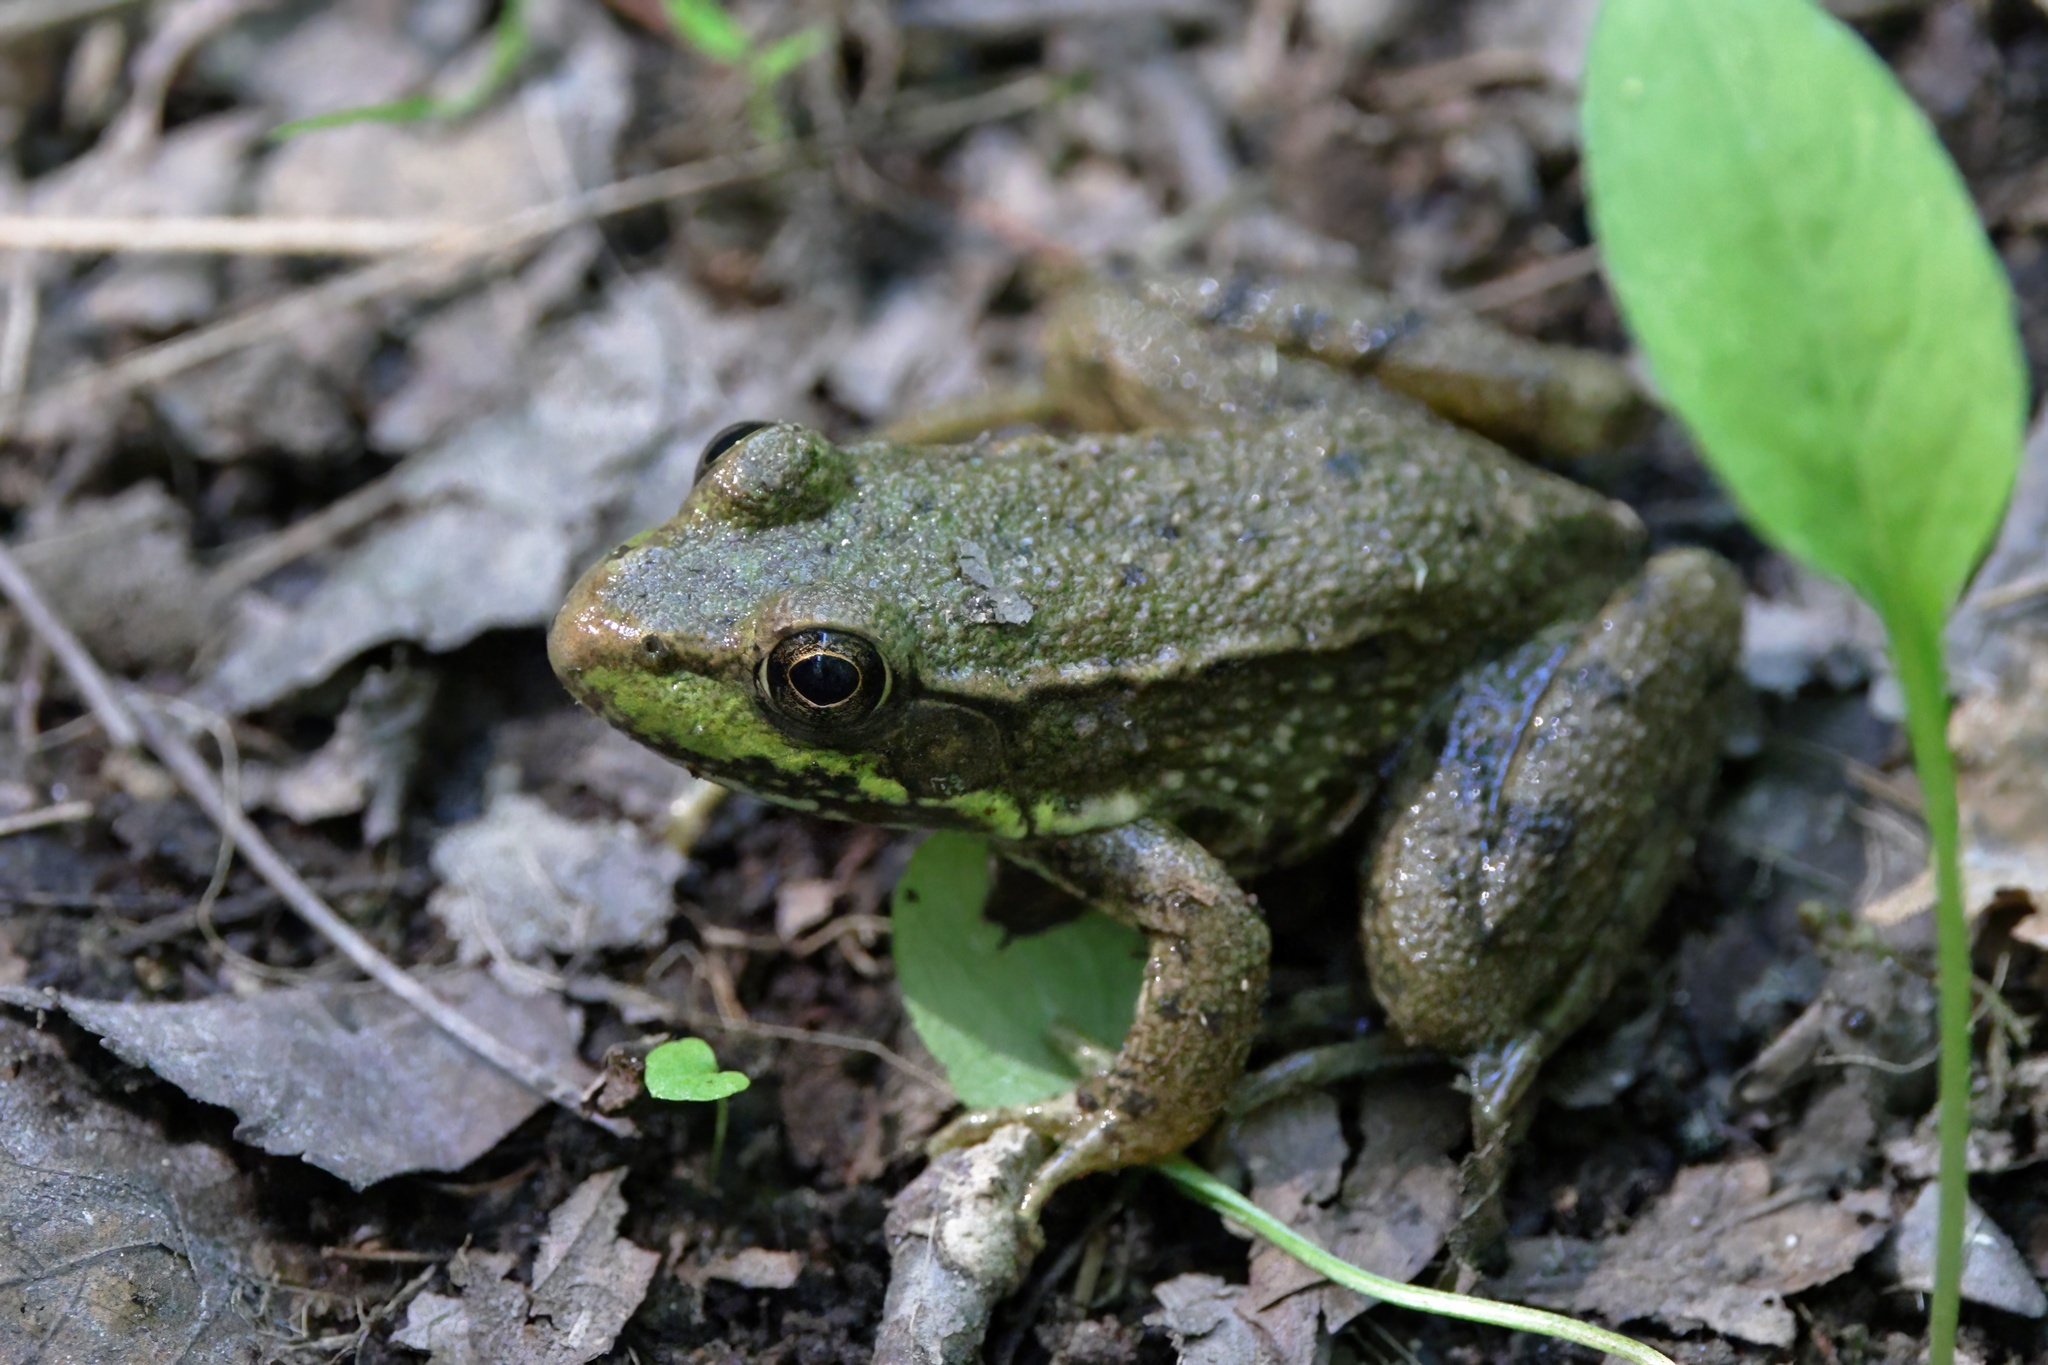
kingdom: Animalia
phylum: Chordata
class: Amphibia
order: Anura
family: Ranidae
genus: Lithobates
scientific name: Lithobates clamitans
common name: Green frog
